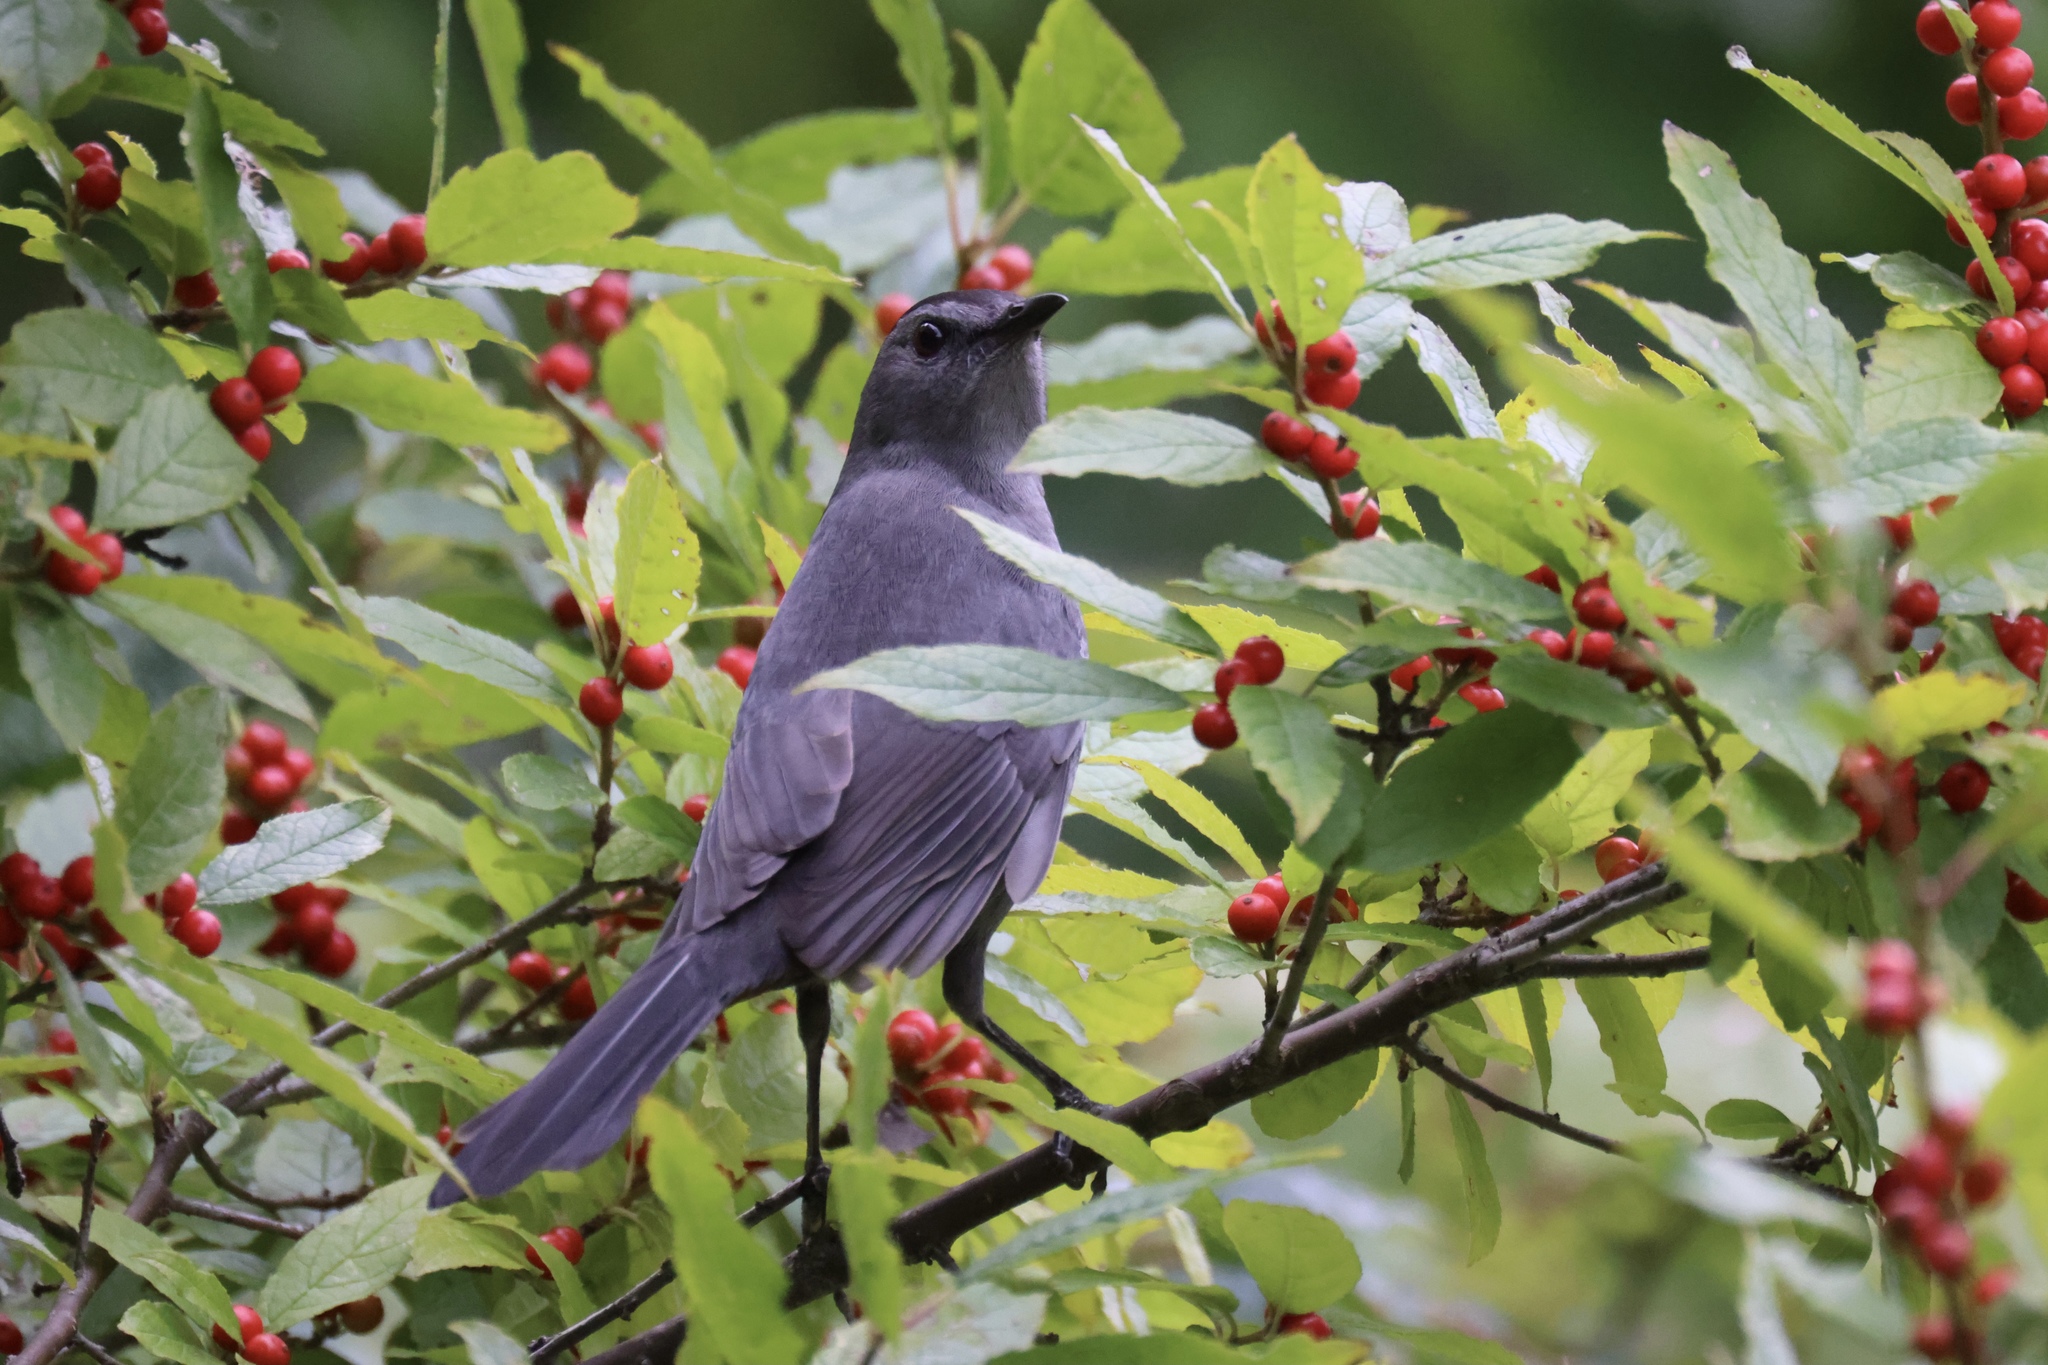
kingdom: Animalia
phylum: Chordata
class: Aves
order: Passeriformes
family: Mimidae
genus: Dumetella
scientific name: Dumetella carolinensis
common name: Gray catbird
